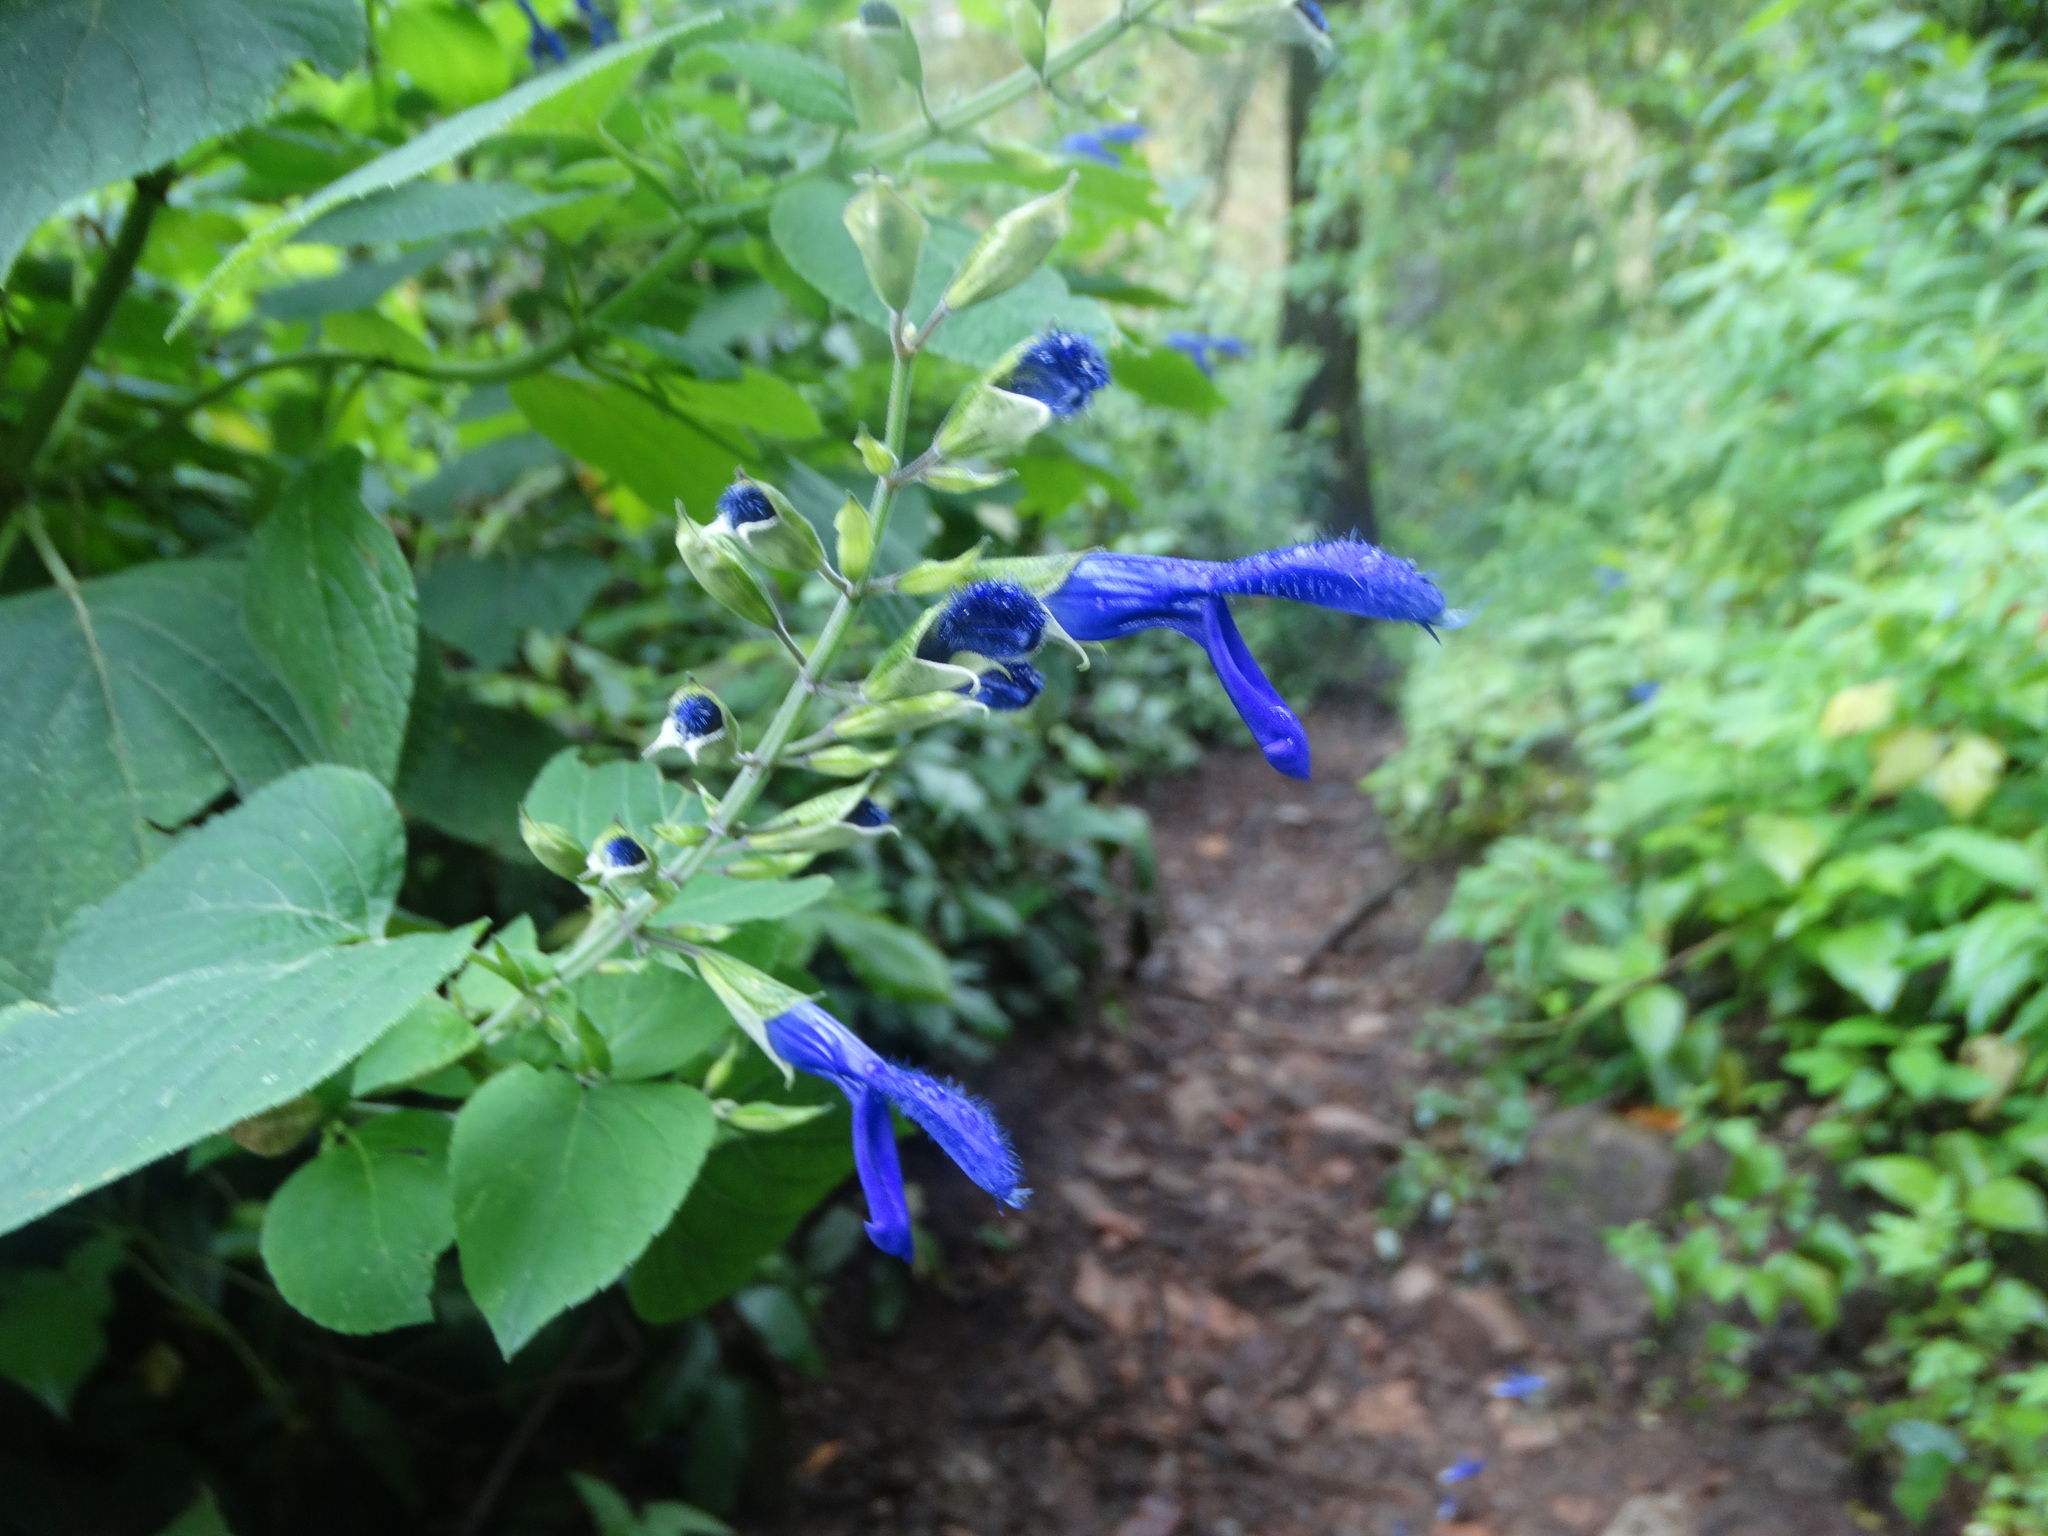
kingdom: Plantae
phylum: Tracheophyta
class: Magnoliopsida
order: Lamiales
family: Lamiaceae
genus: Salvia
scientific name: Salvia mexicana
